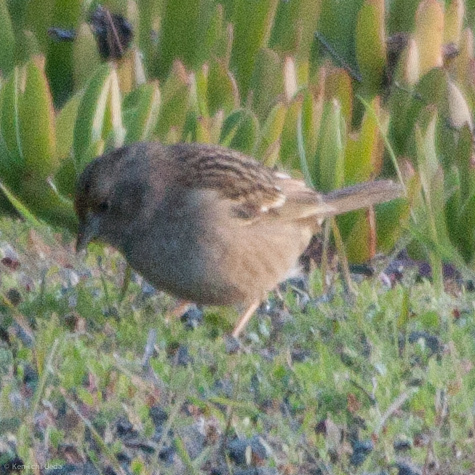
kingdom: Animalia
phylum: Chordata
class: Aves
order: Passeriformes
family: Passerellidae
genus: Zonotrichia
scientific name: Zonotrichia atricapilla
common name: Golden-crowned sparrow
